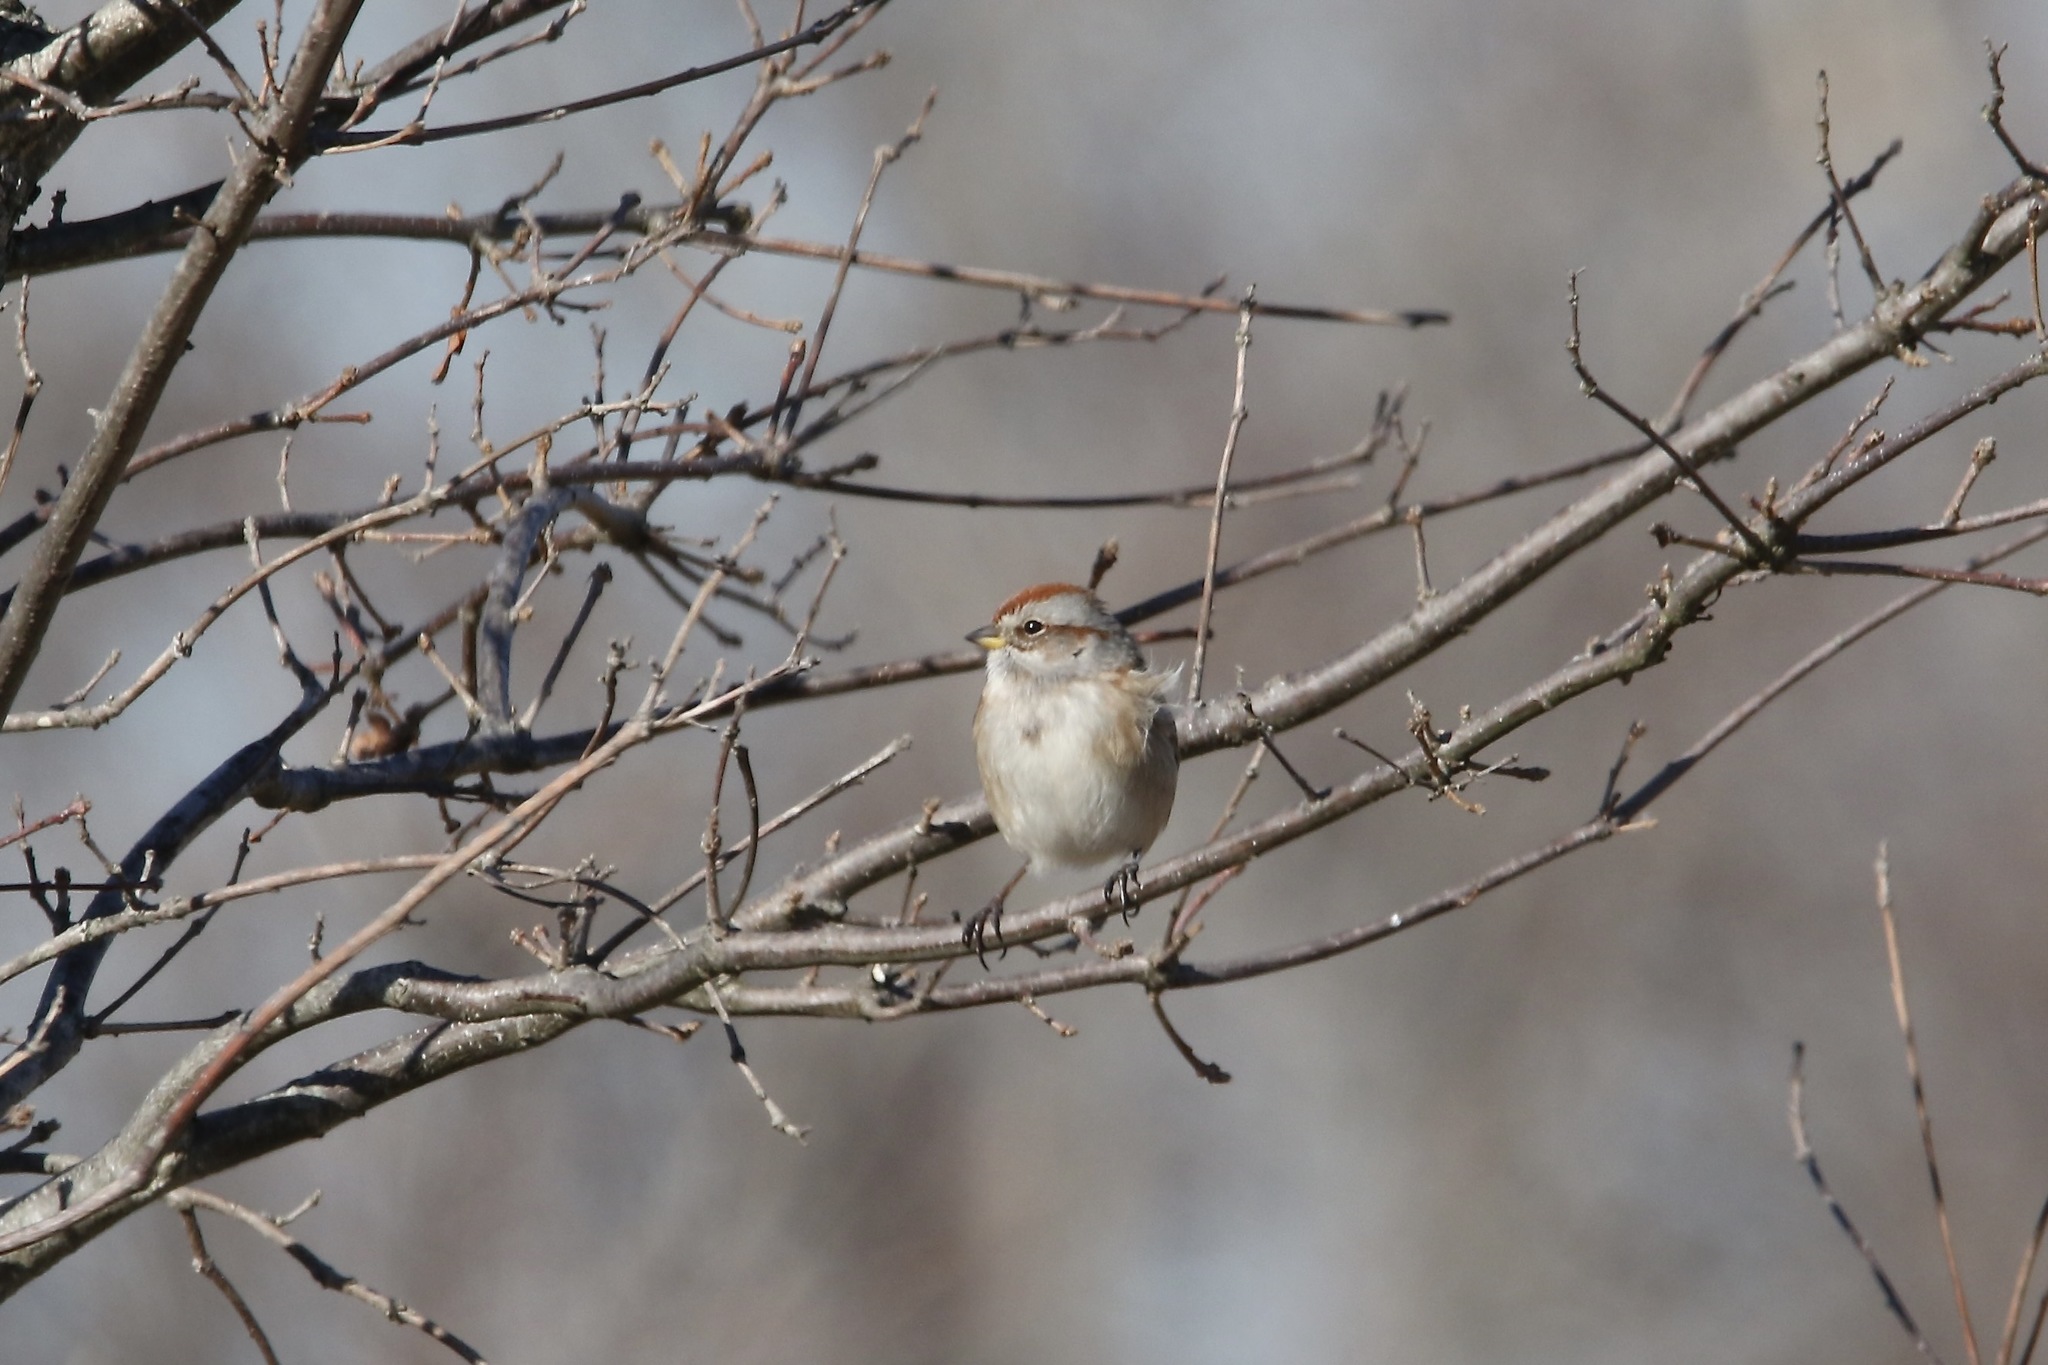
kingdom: Animalia
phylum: Chordata
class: Aves
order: Passeriformes
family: Passerellidae
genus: Spizelloides
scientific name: Spizelloides arborea
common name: American tree sparrow
